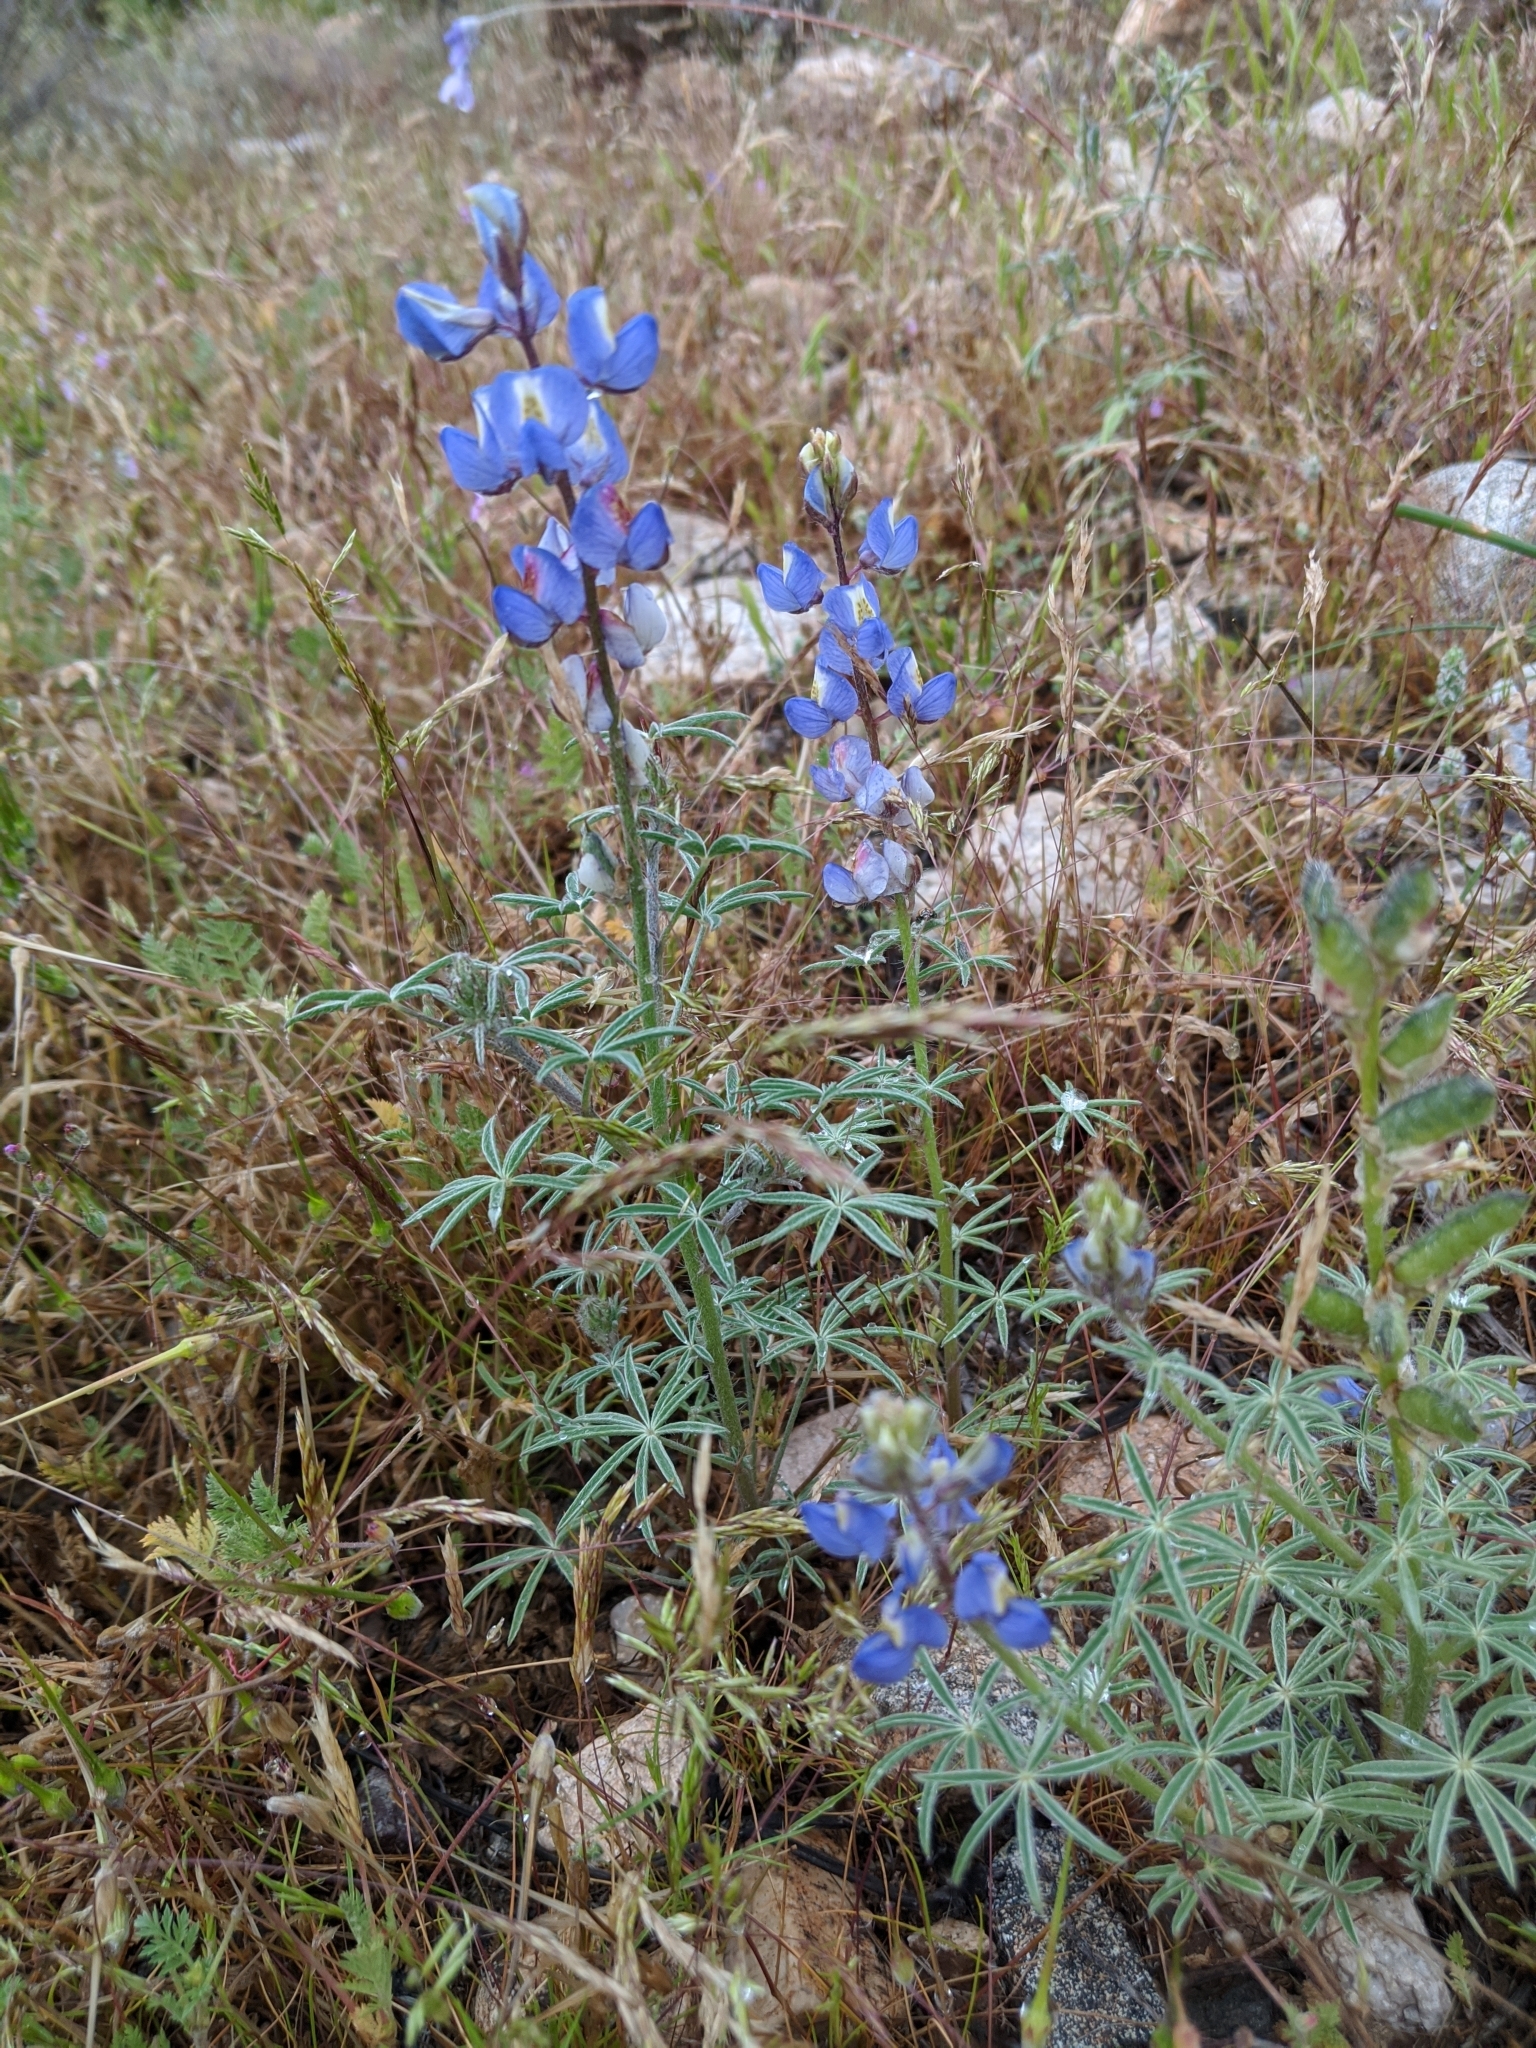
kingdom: Plantae
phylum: Tracheophyta
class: Magnoliopsida
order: Fabales
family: Fabaceae
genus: Lupinus
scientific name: Lupinus sparsiflorus
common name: Coulter's lupine
